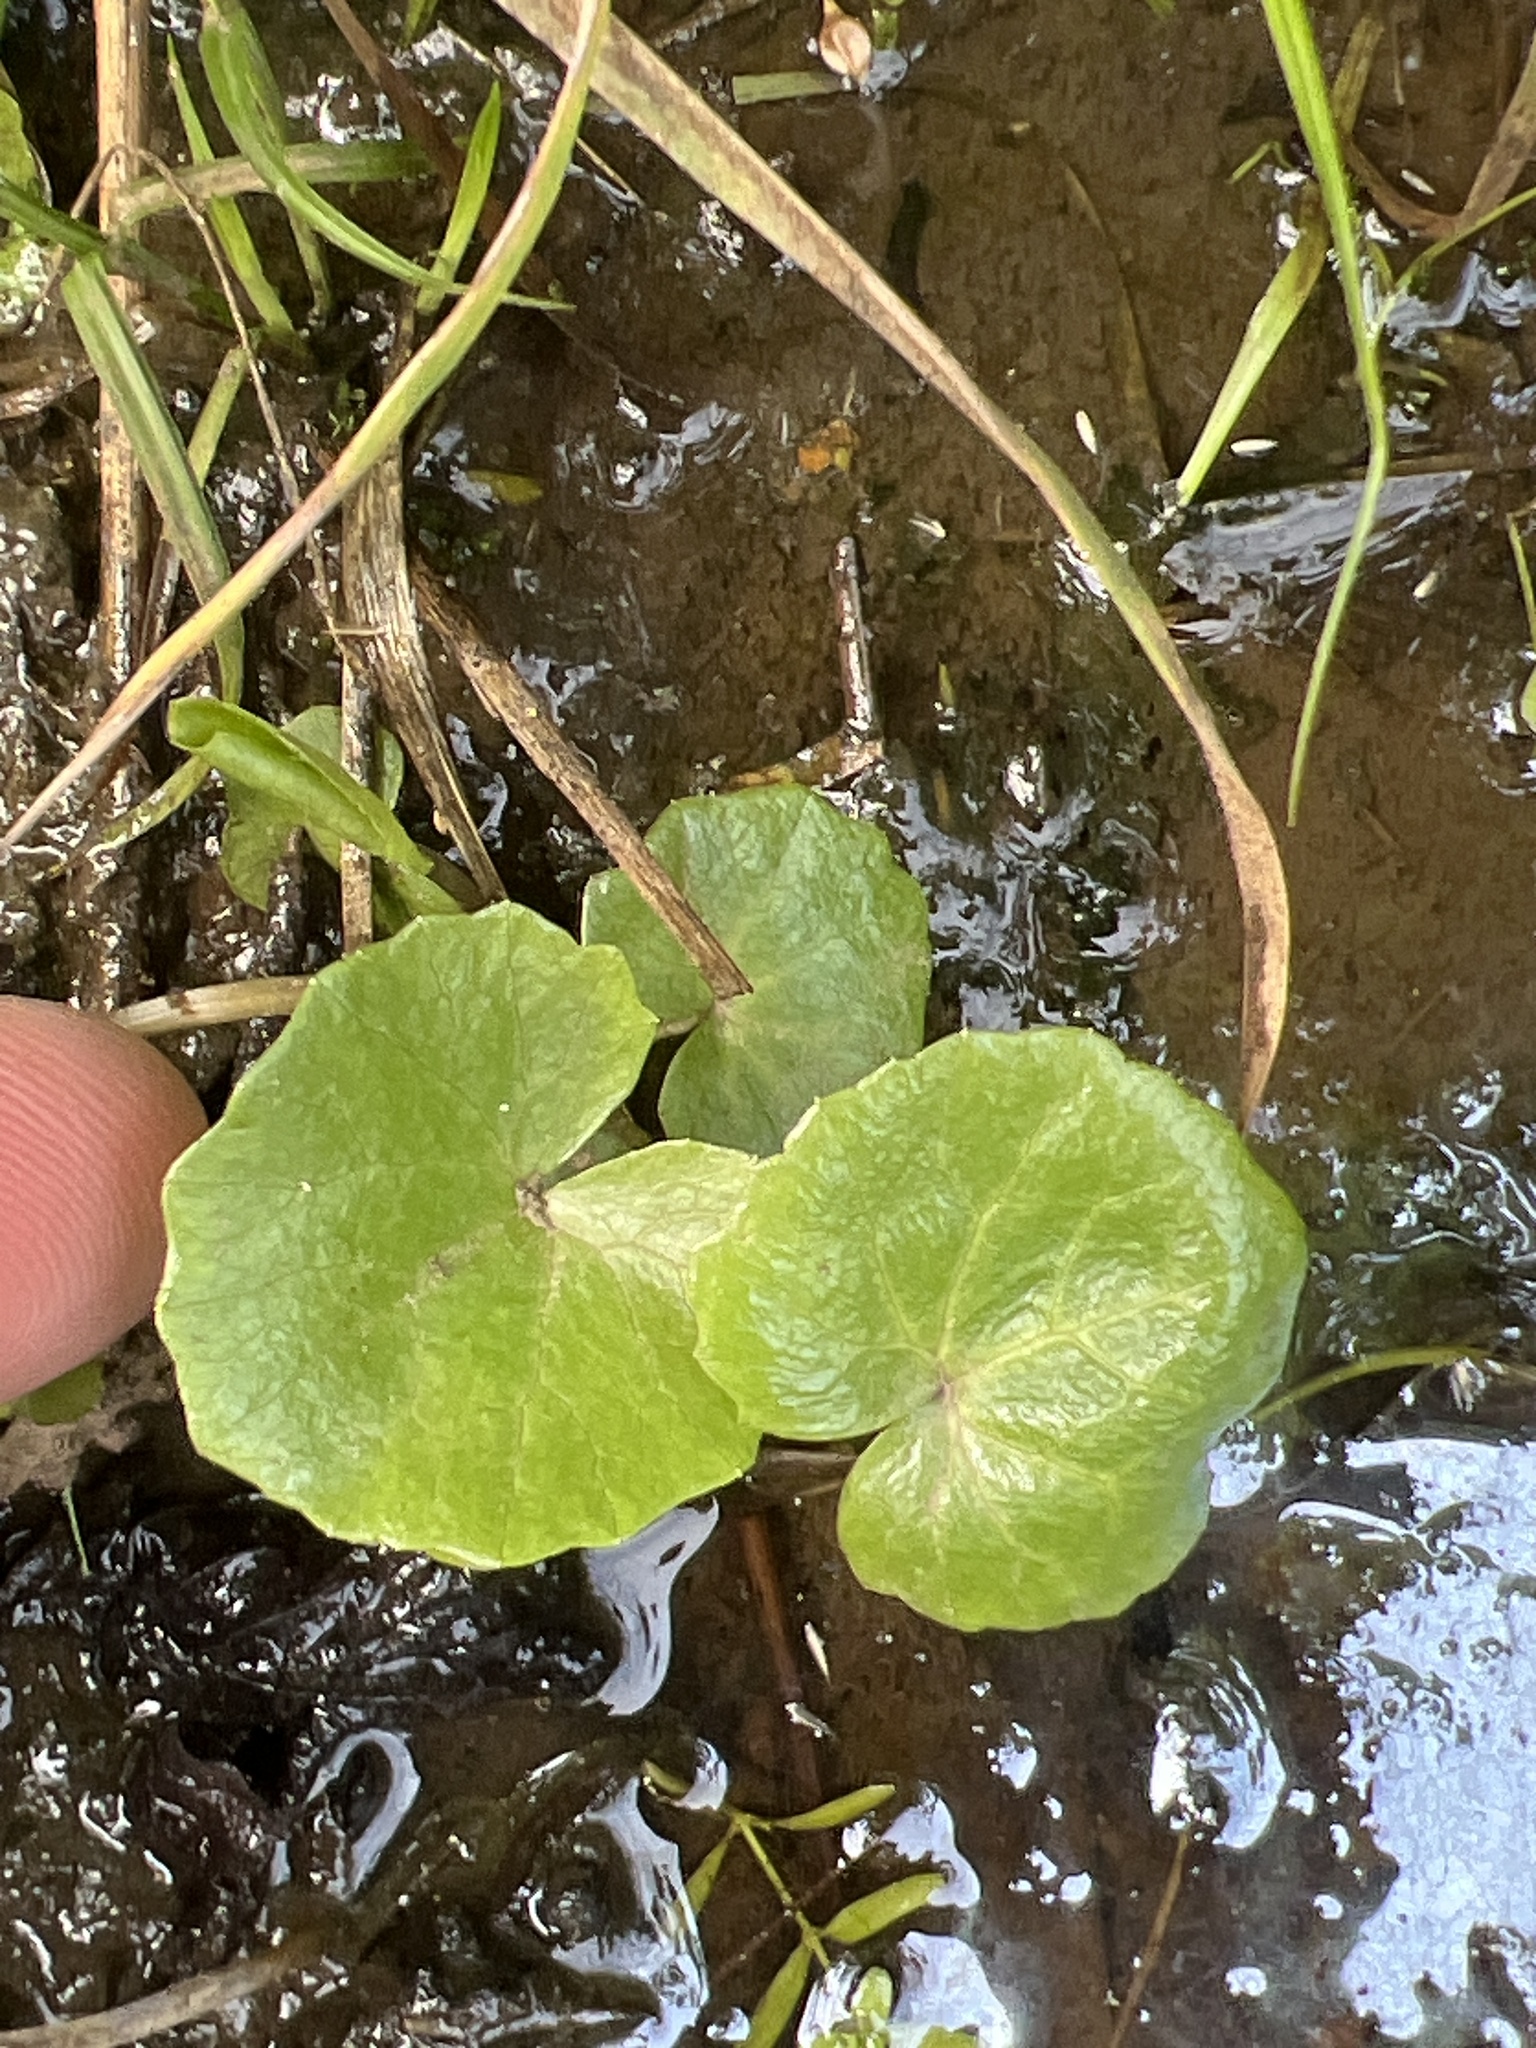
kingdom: Plantae
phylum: Tracheophyta
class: Magnoliopsida
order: Ranunculales
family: Ranunculaceae
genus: Caltha
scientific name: Caltha palustris
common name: Marsh marigold
